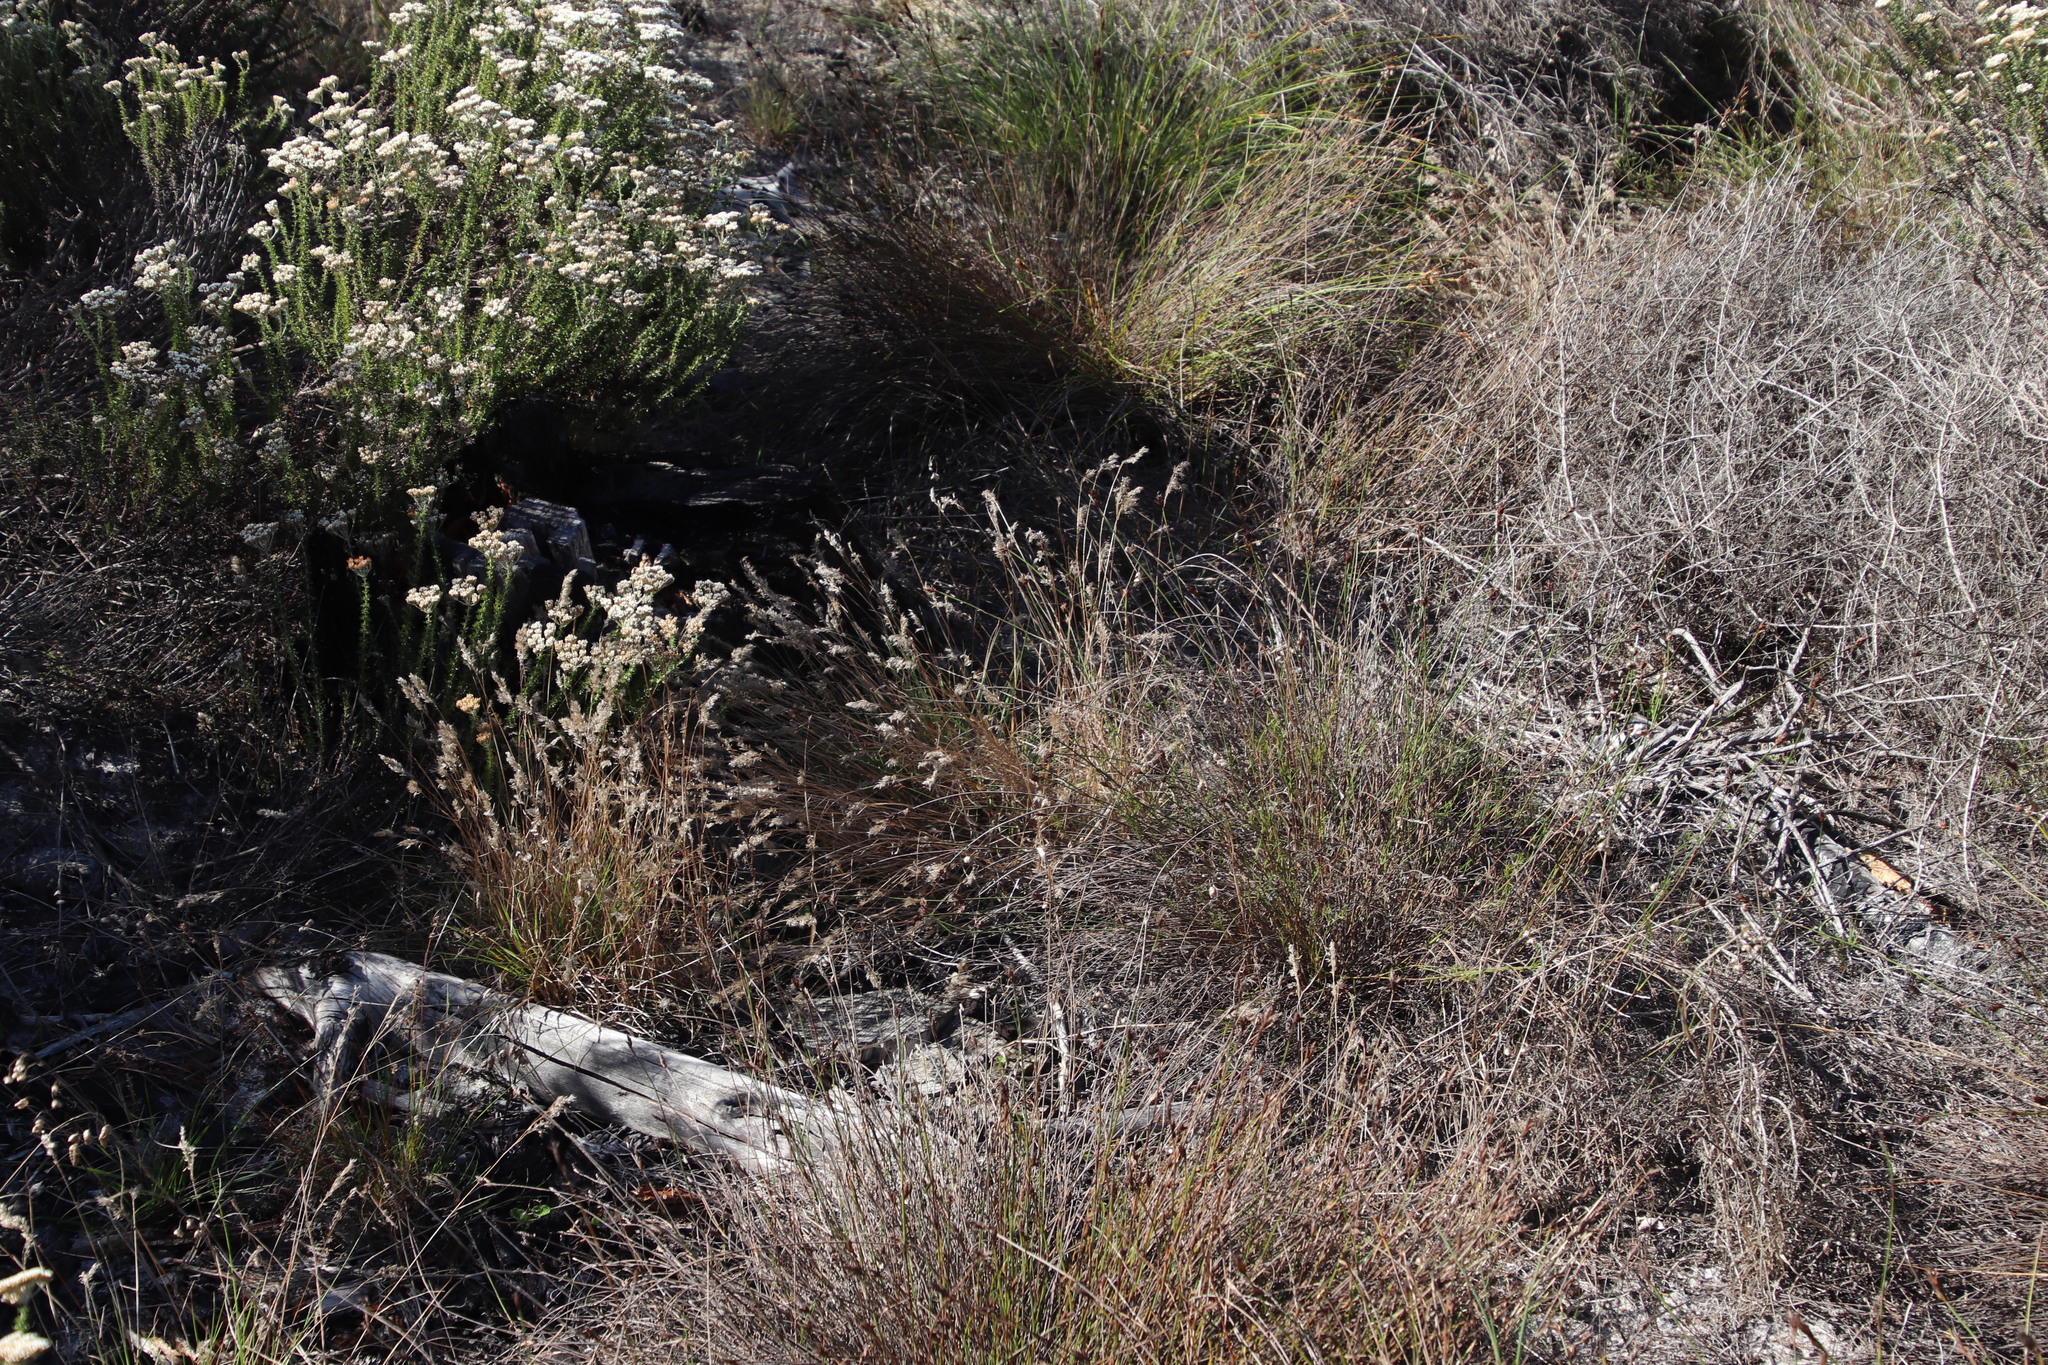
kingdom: Plantae
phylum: Tracheophyta
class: Liliopsida
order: Poales
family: Poaceae
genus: Pentameris
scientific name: Pentameris pallida
